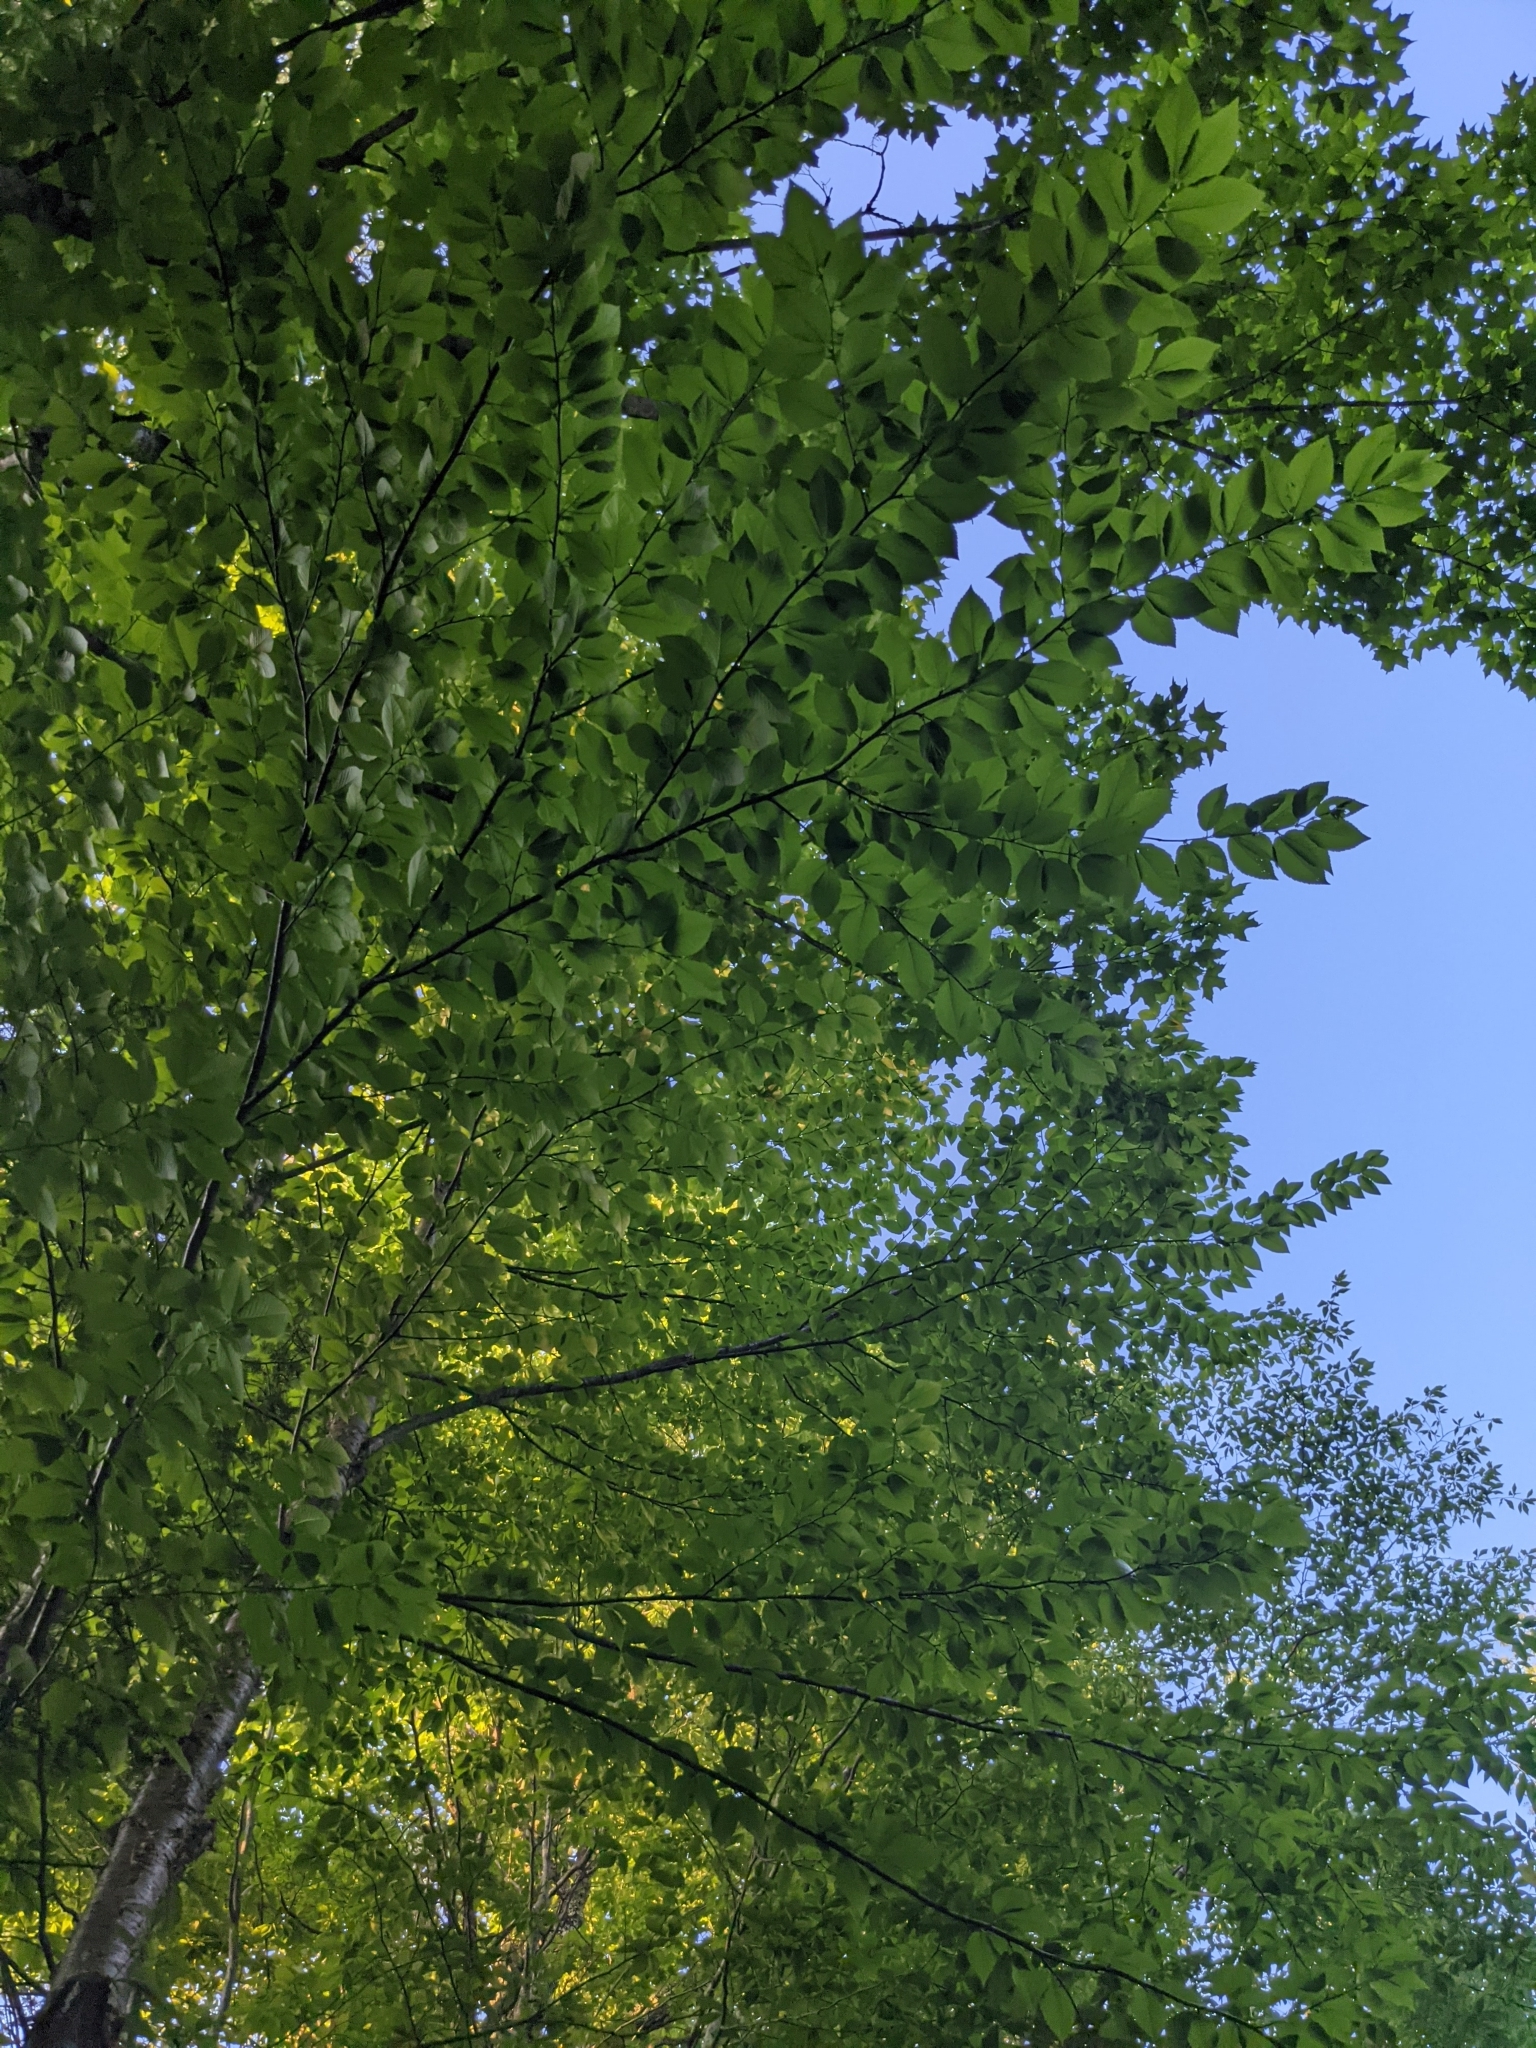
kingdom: Plantae
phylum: Tracheophyta
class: Magnoliopsida
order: Fagales
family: Betulaceae
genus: Betula
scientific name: Betula alleghaniensis
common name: Yellow birch
